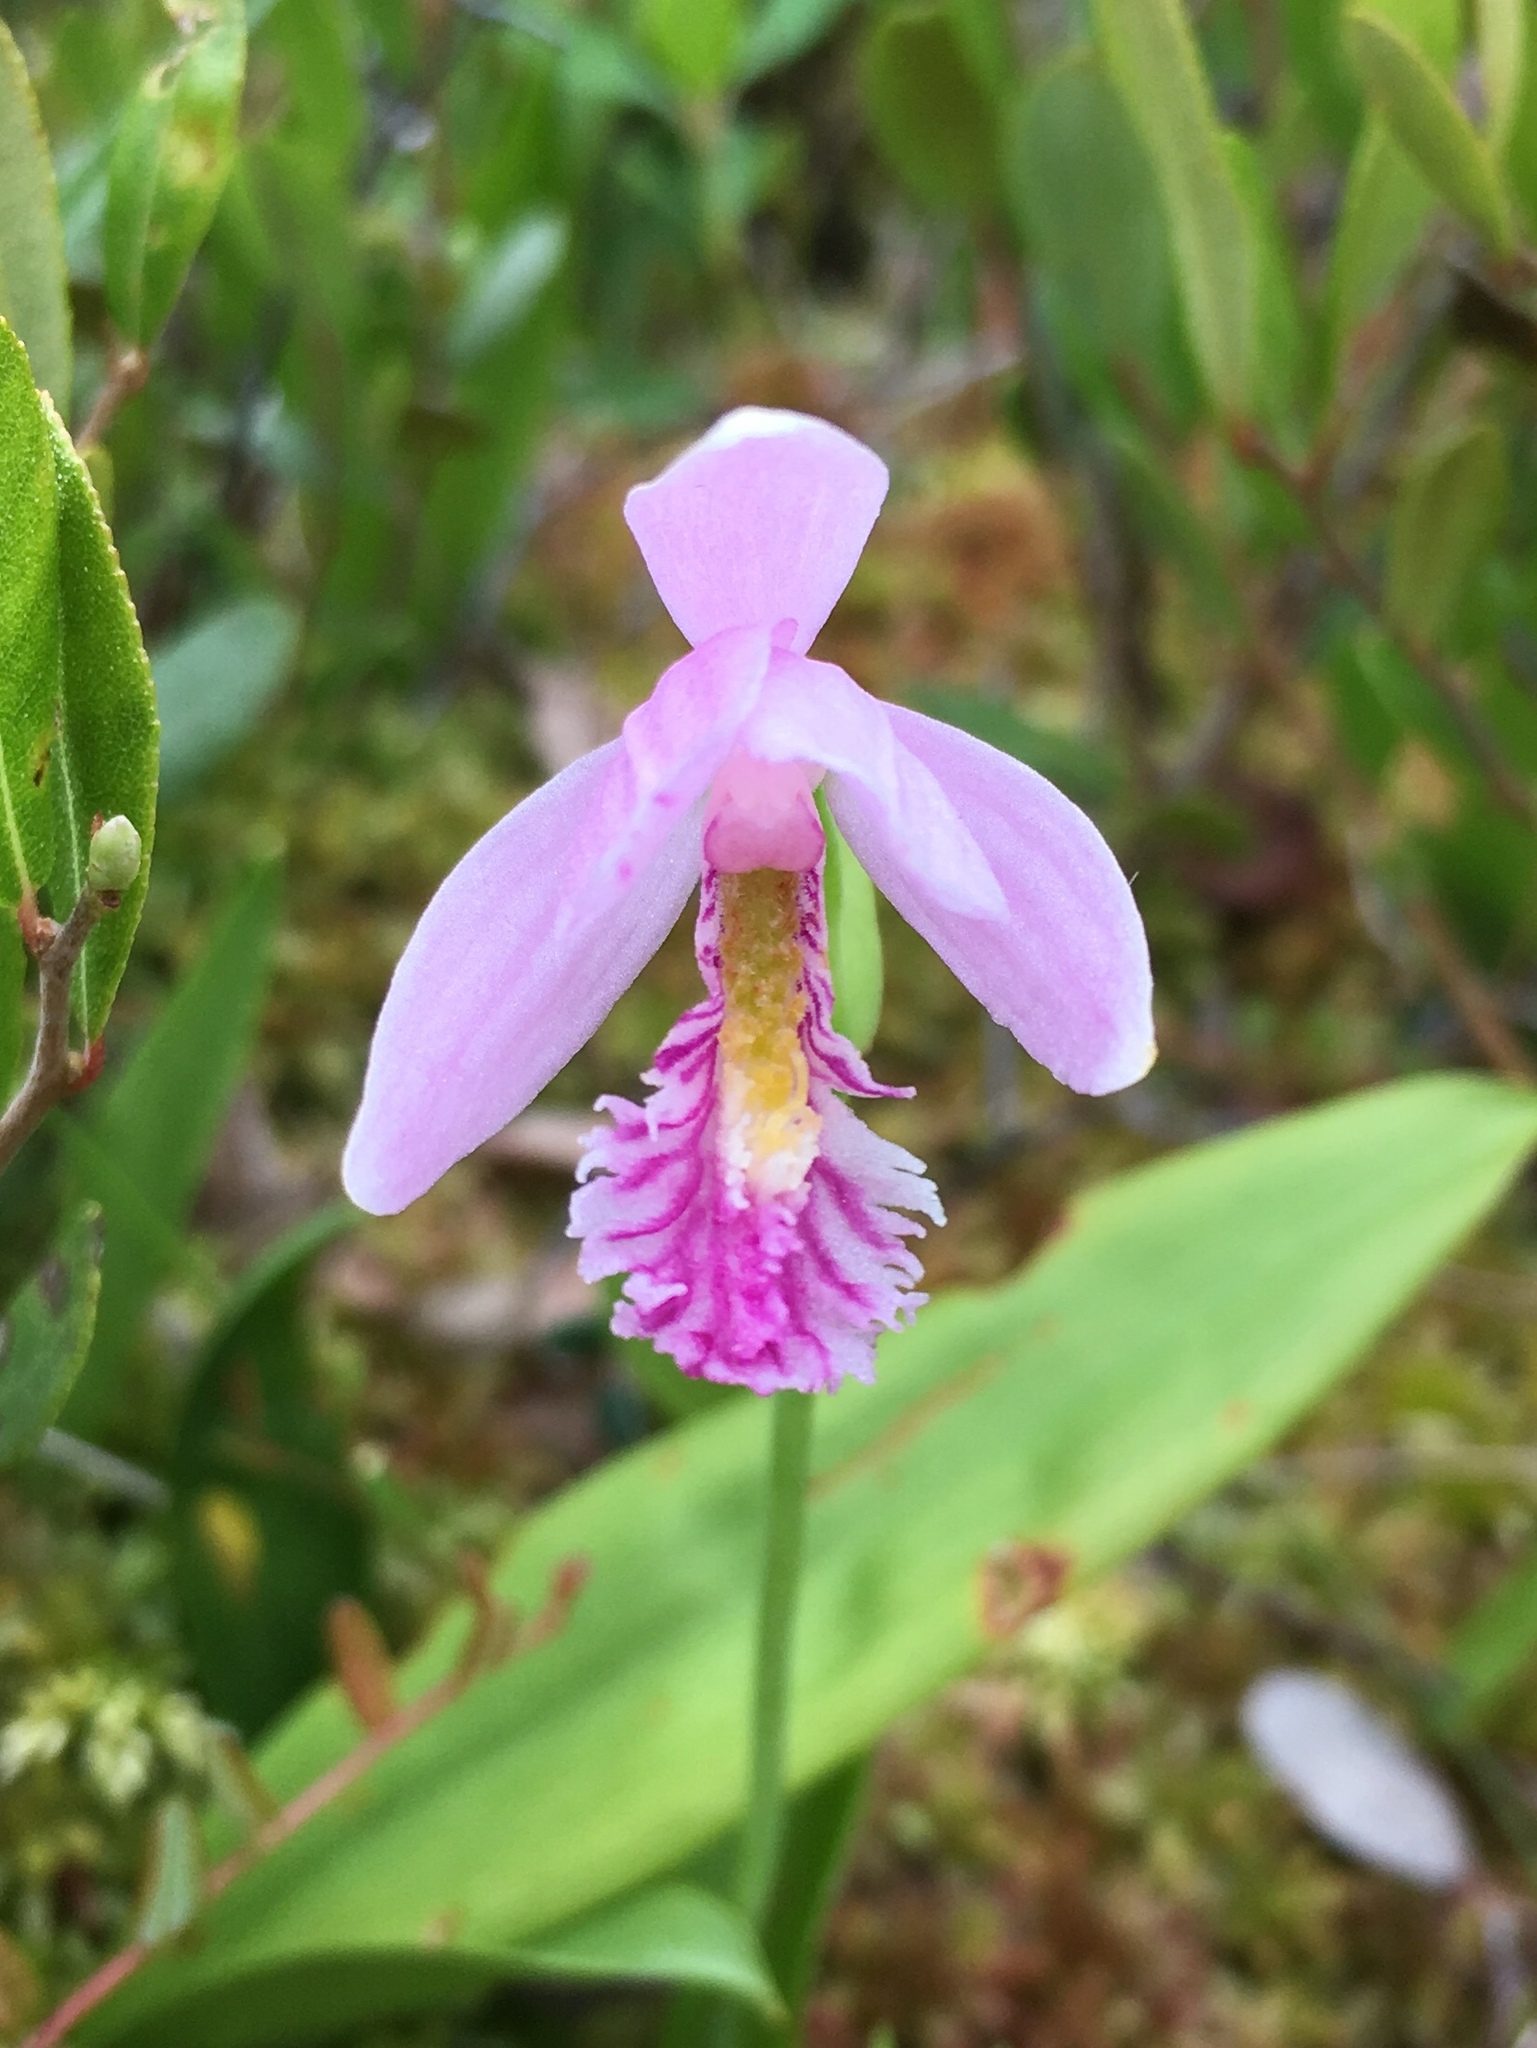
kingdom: Plantae
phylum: Tracheophyta
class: Liliopsida
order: Asparagales
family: Orchidaceae
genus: Pogonia
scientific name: Pogonia ophioglossoides
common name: Rose pogonia
